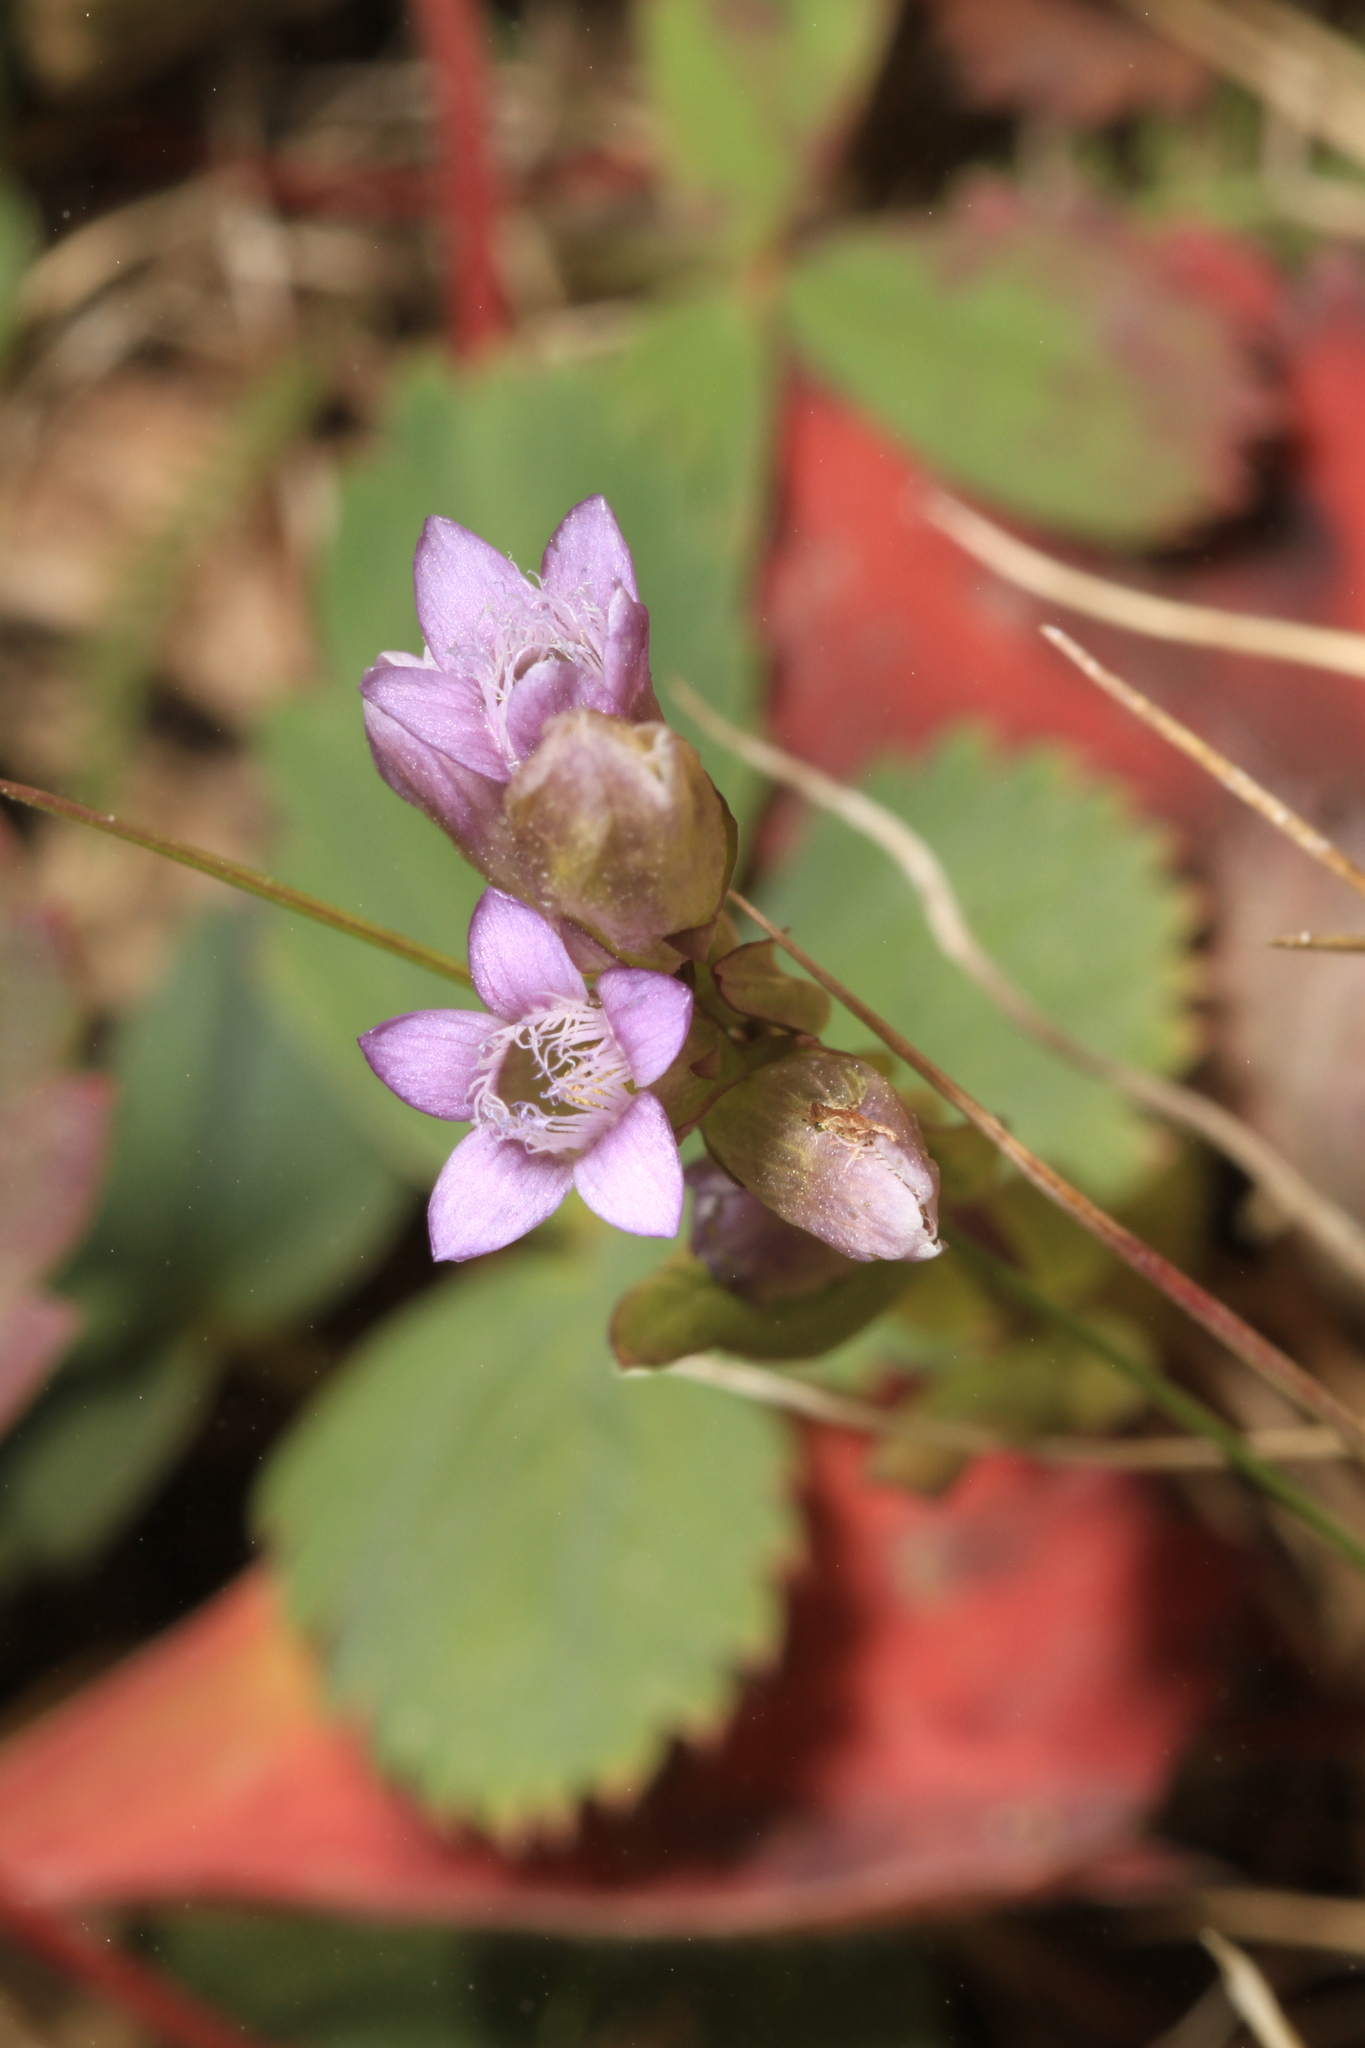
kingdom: Plantae
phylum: Tracheophyta
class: Magnoliopsida
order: Gentianales
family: Gentianaceae
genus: Gentianella
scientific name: Gentianella amarella
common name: Autumn gentian
